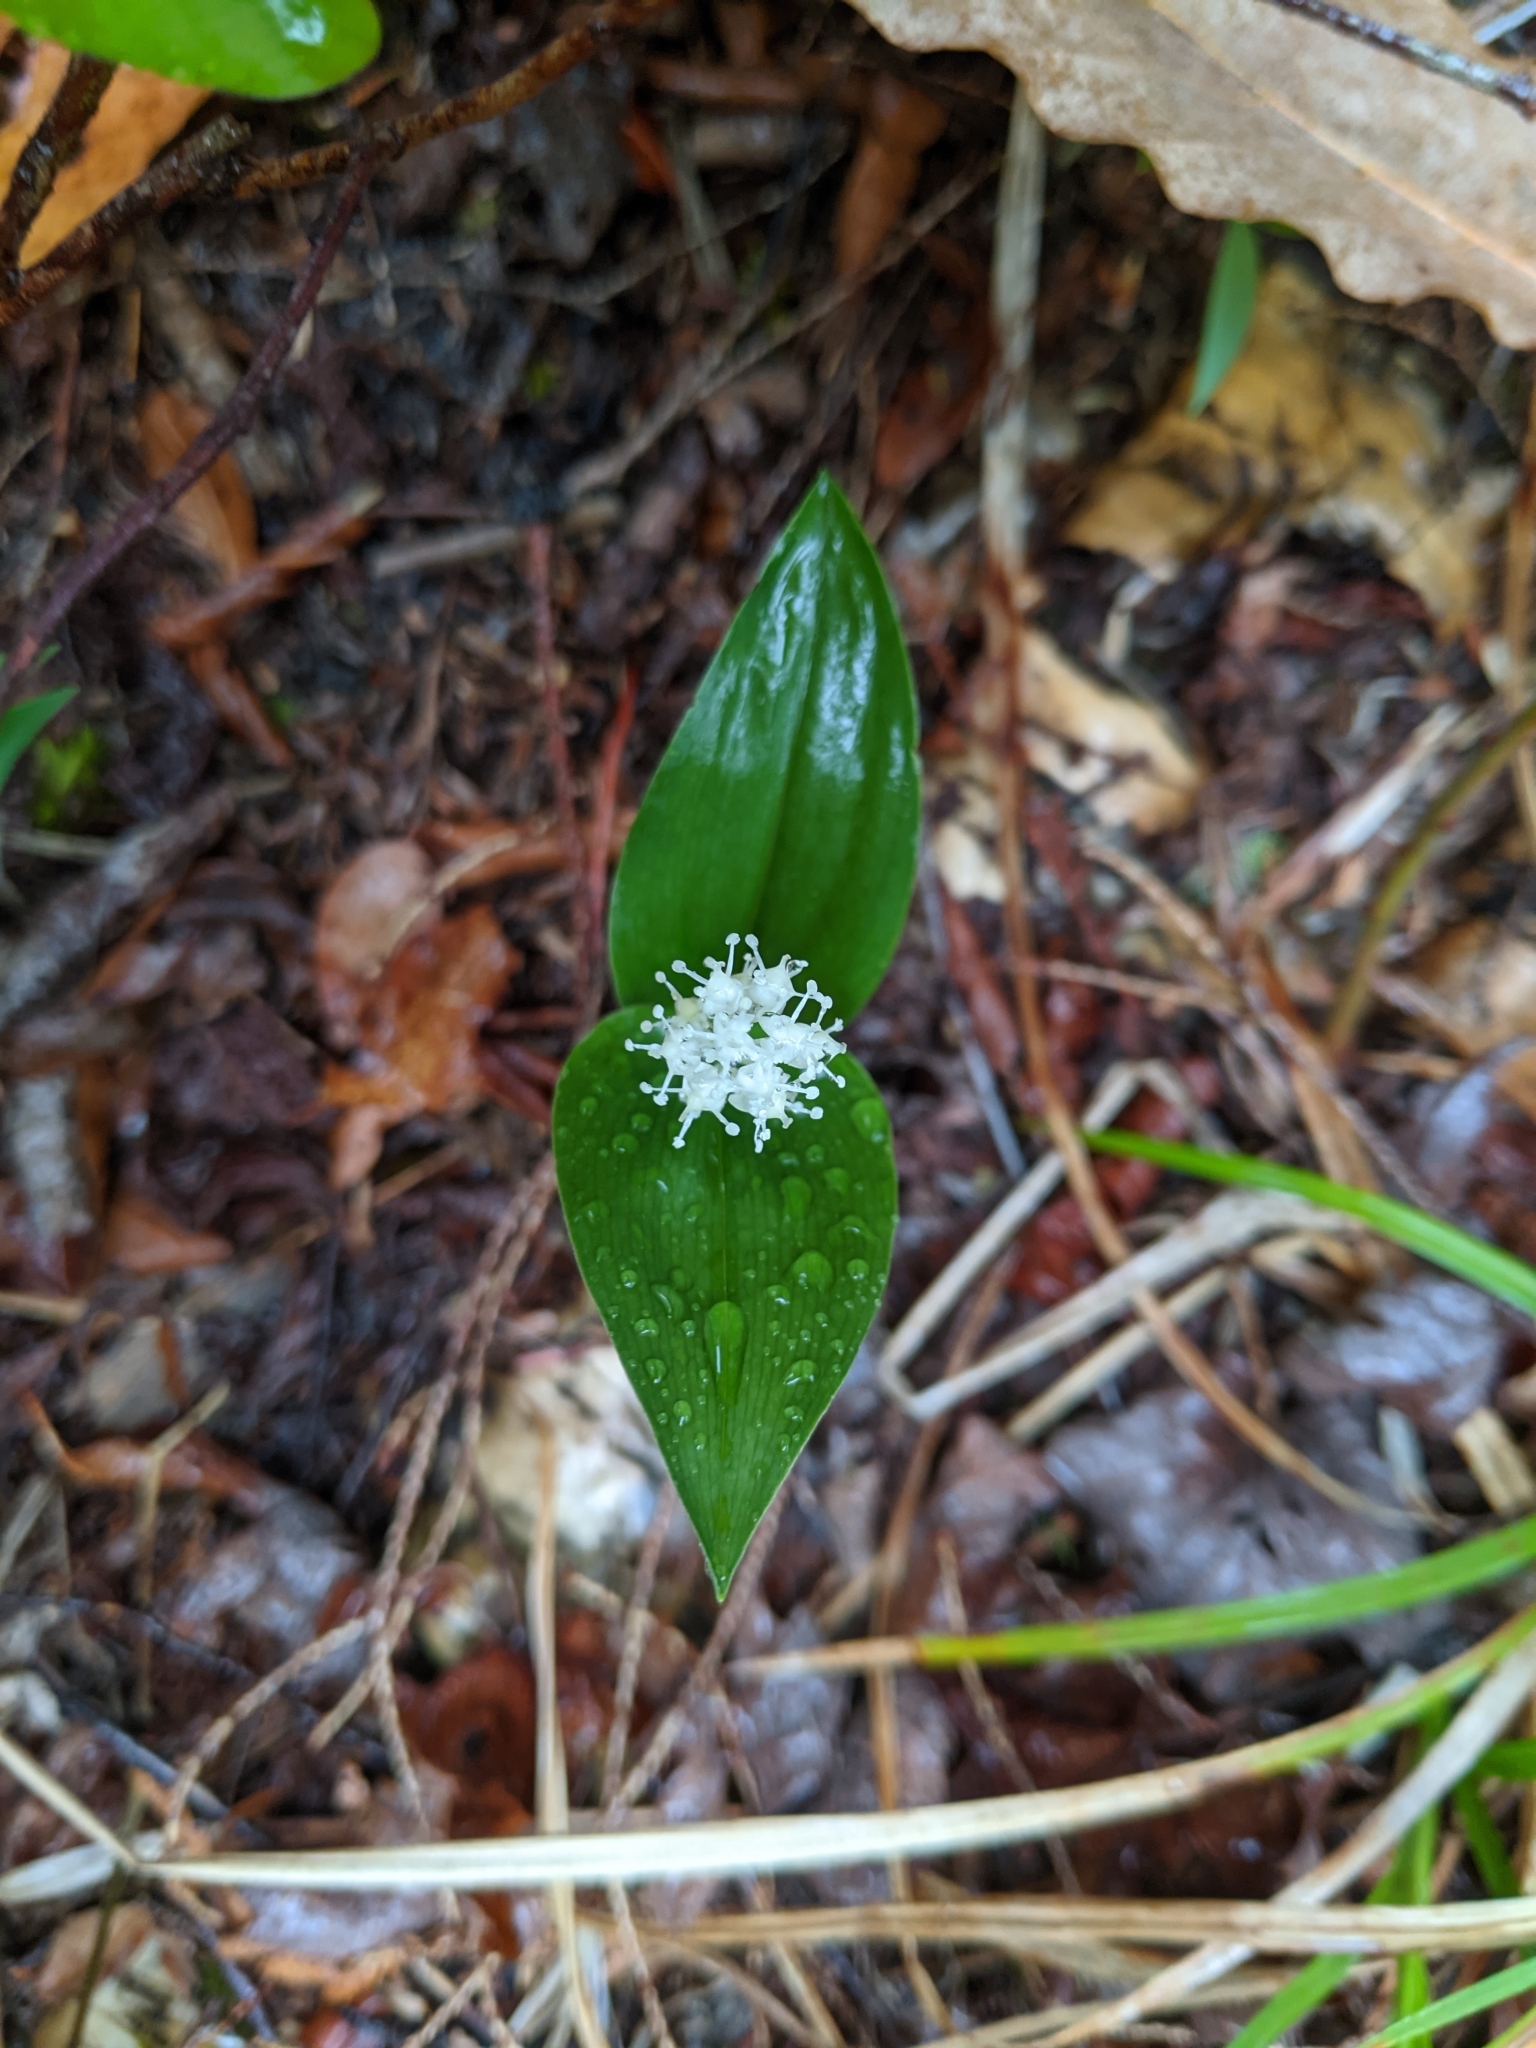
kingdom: Plantae
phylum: Tracheophyta
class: Liliopsida
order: Asparagales
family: Asparagaceae
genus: Maianthemum
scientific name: Maianthemum canadense
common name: False lily-of-the-valley
